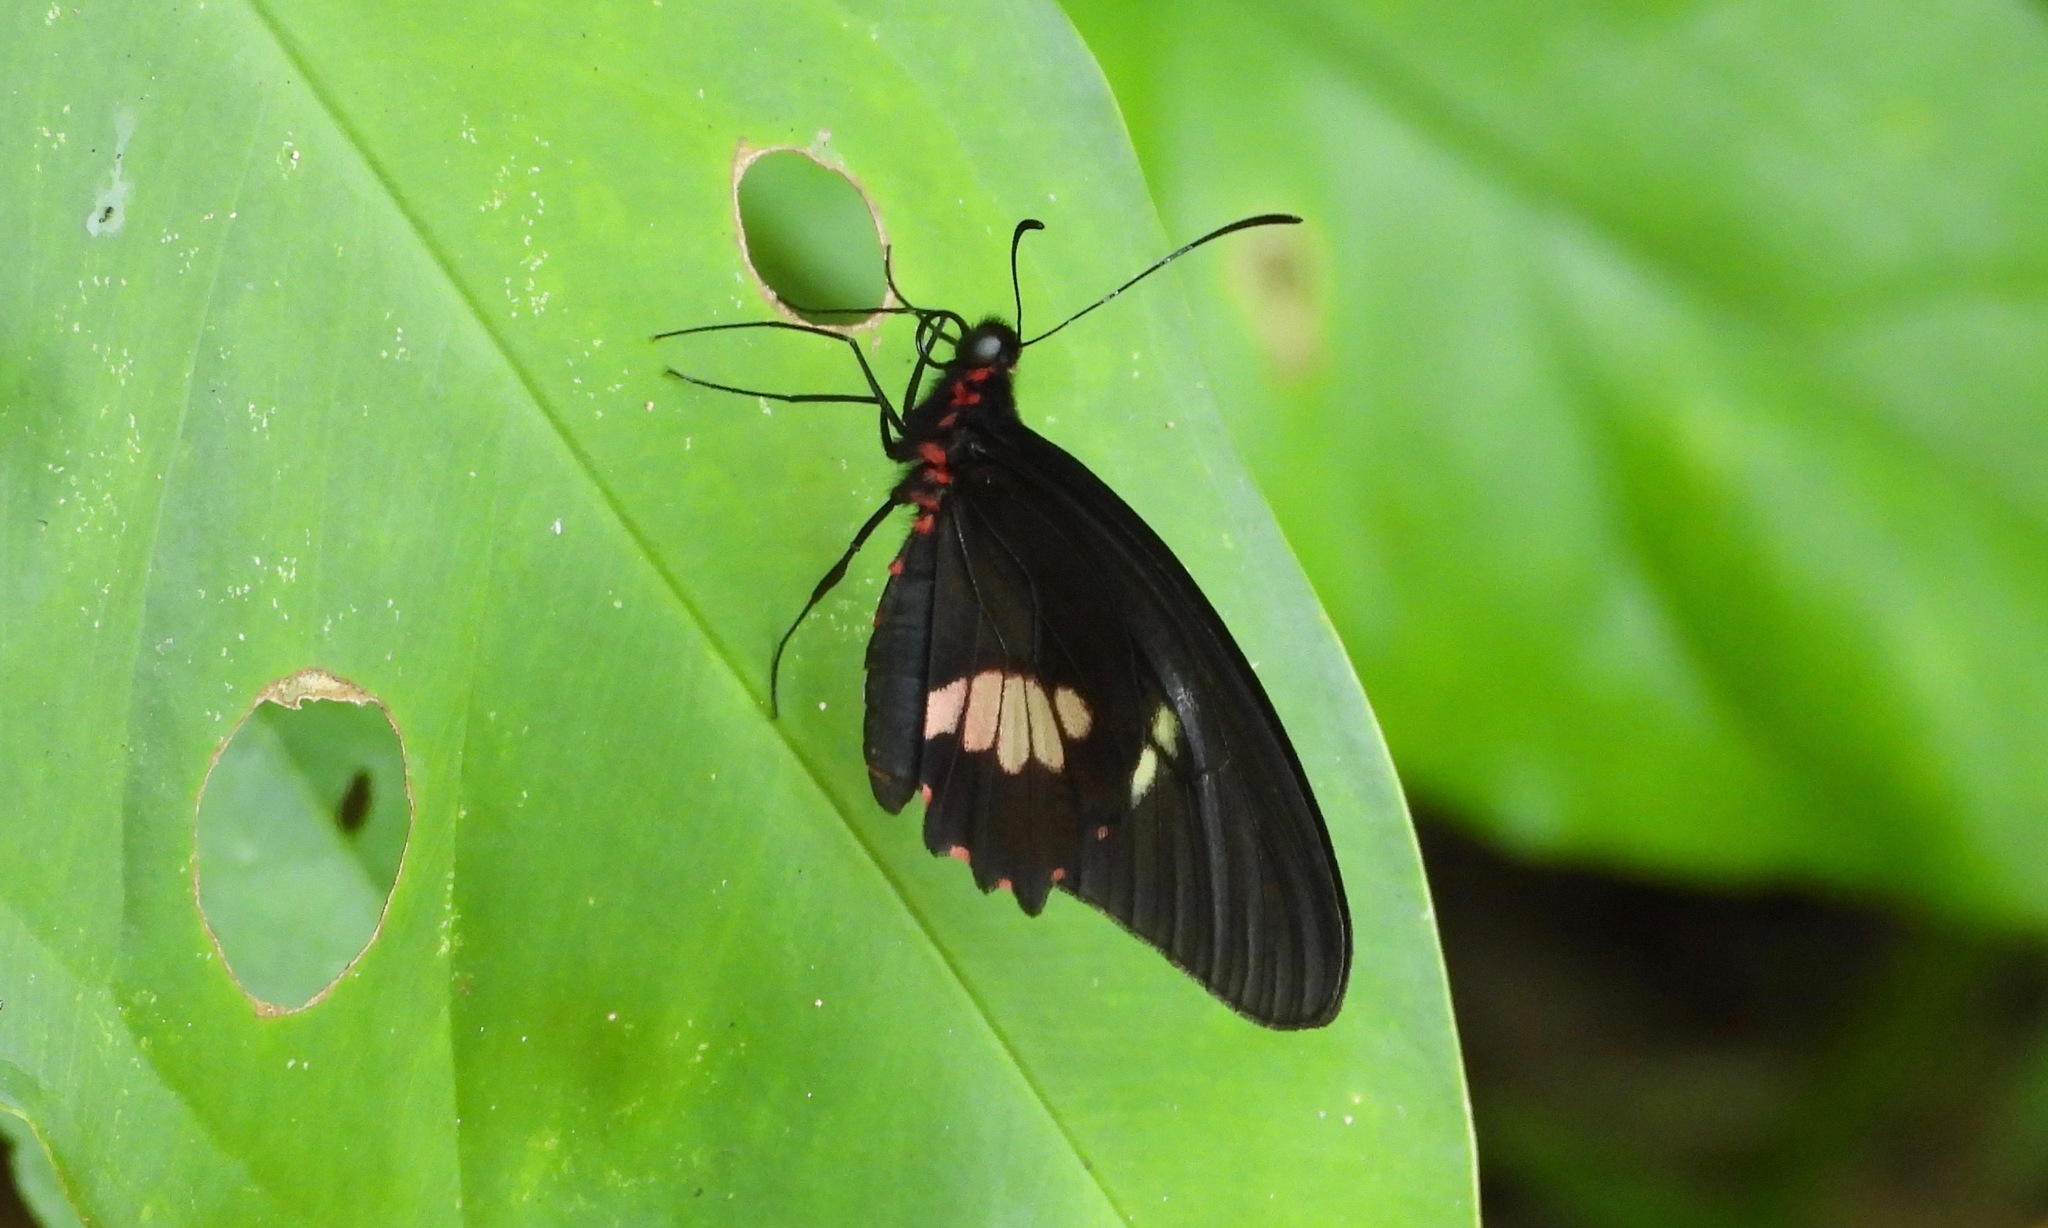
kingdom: Animalia
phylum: Arthropoda
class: Insecta
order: Lepidoptera
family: Papilionidae
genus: Parides
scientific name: Parides eurimedes
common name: True cattleheart
